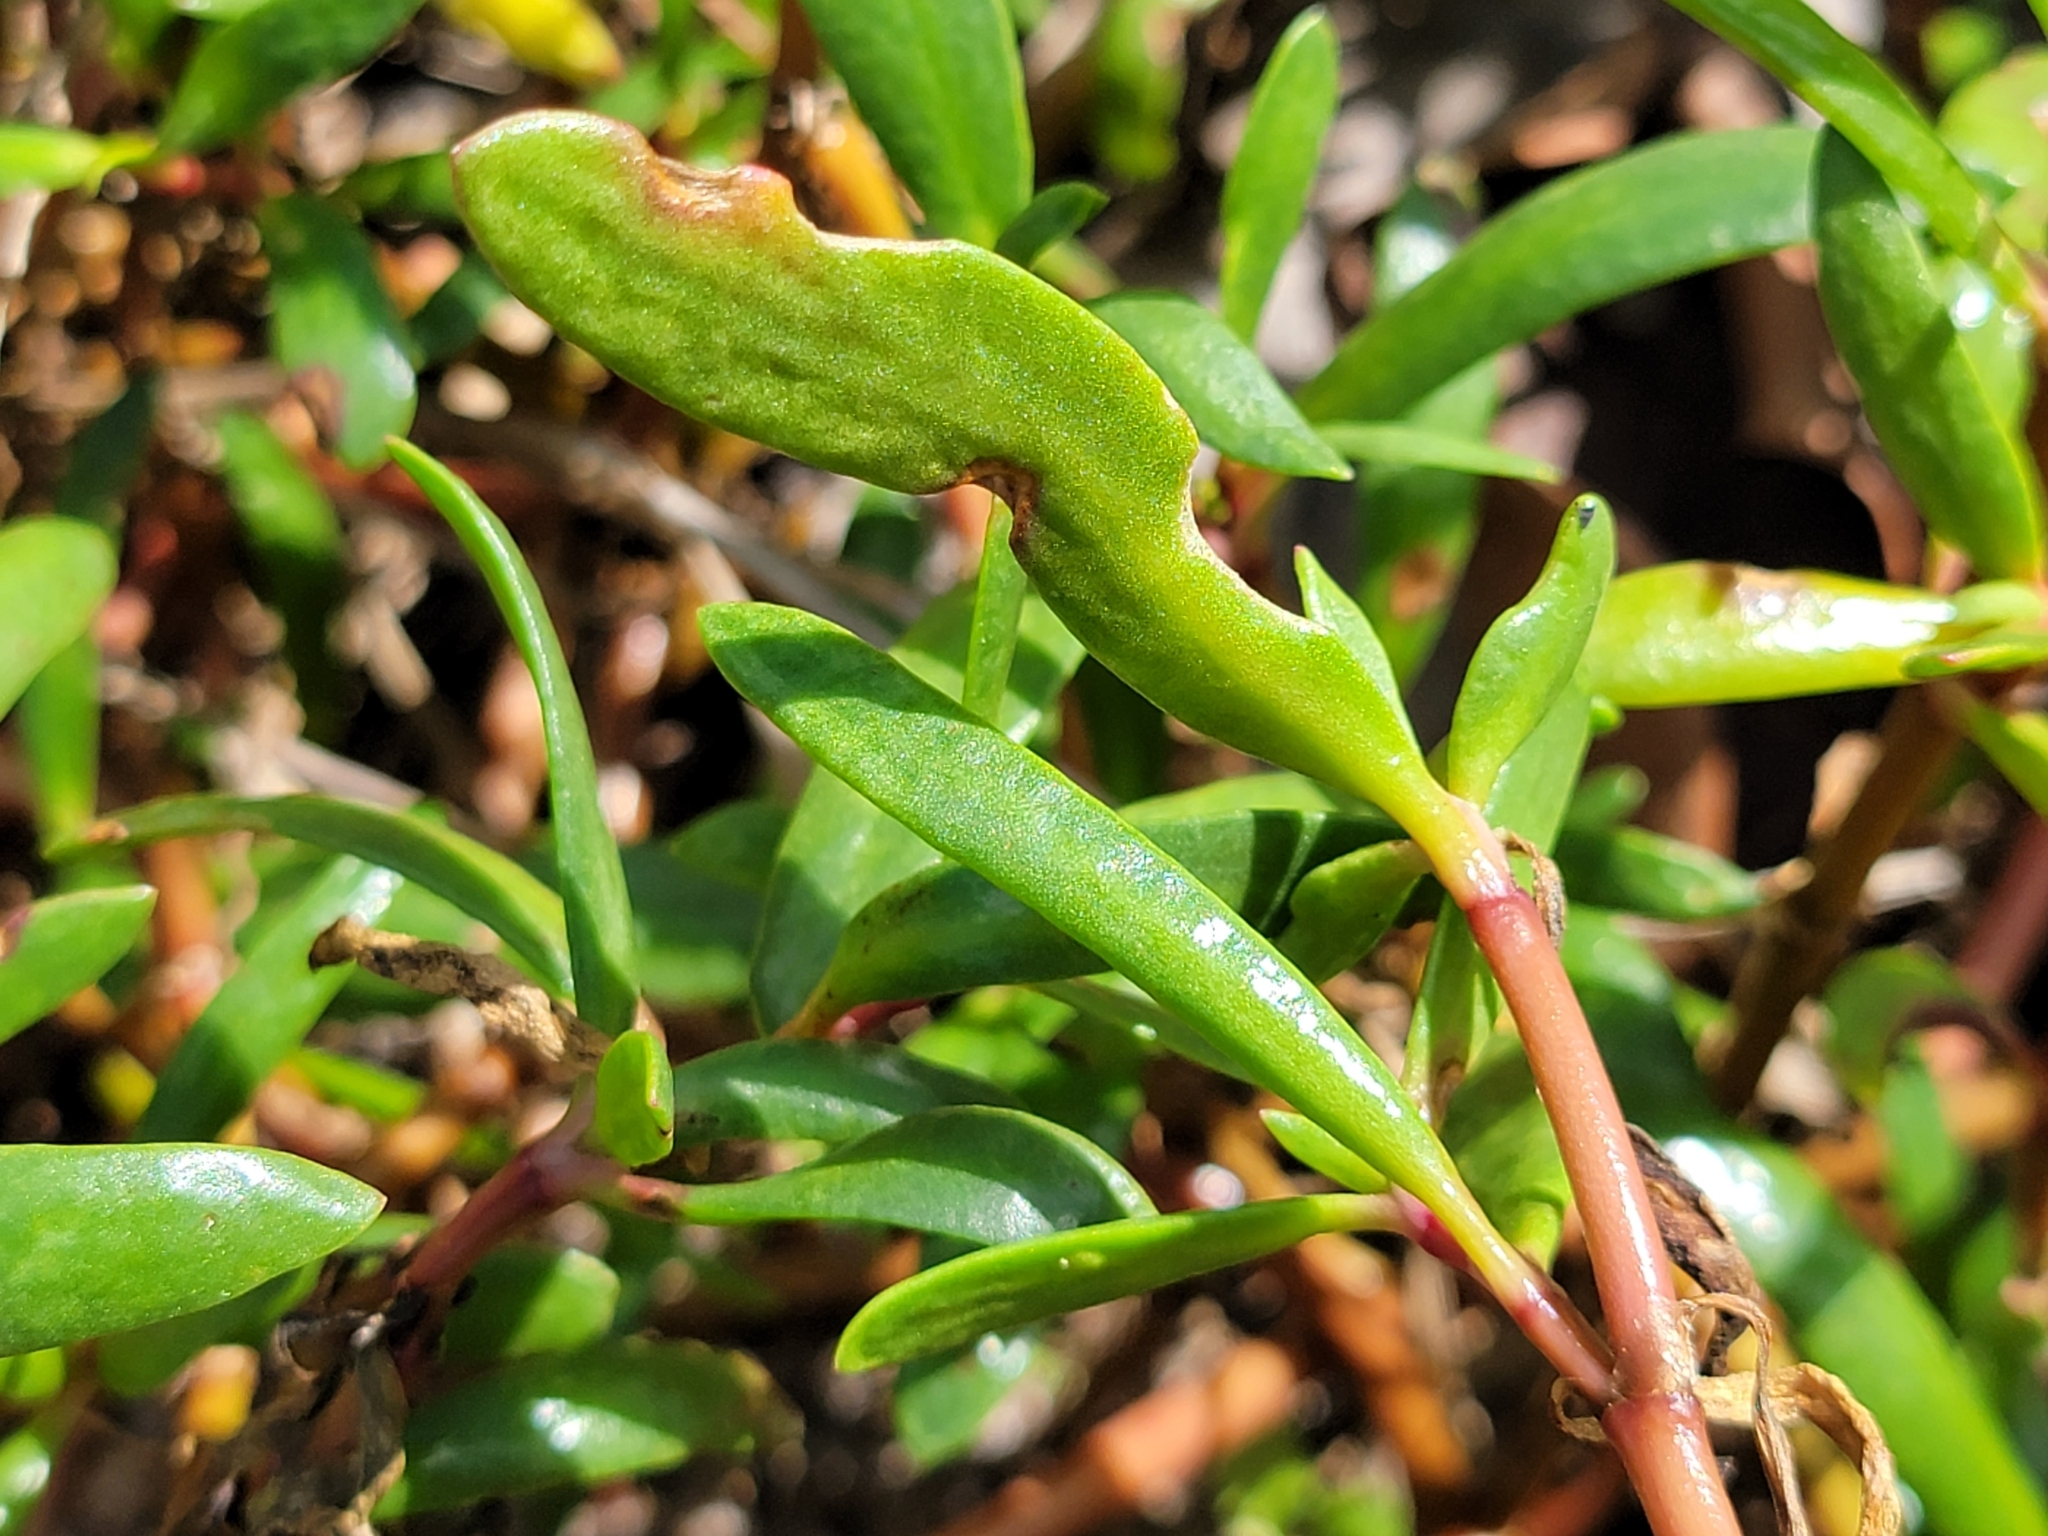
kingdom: Plantae
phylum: Tracheophyta
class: Magnoliopsida
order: Caryophyllales
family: Aizoaceae
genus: Sesuvium
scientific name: Sesuvium portulacastrum
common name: Sea-purslane
